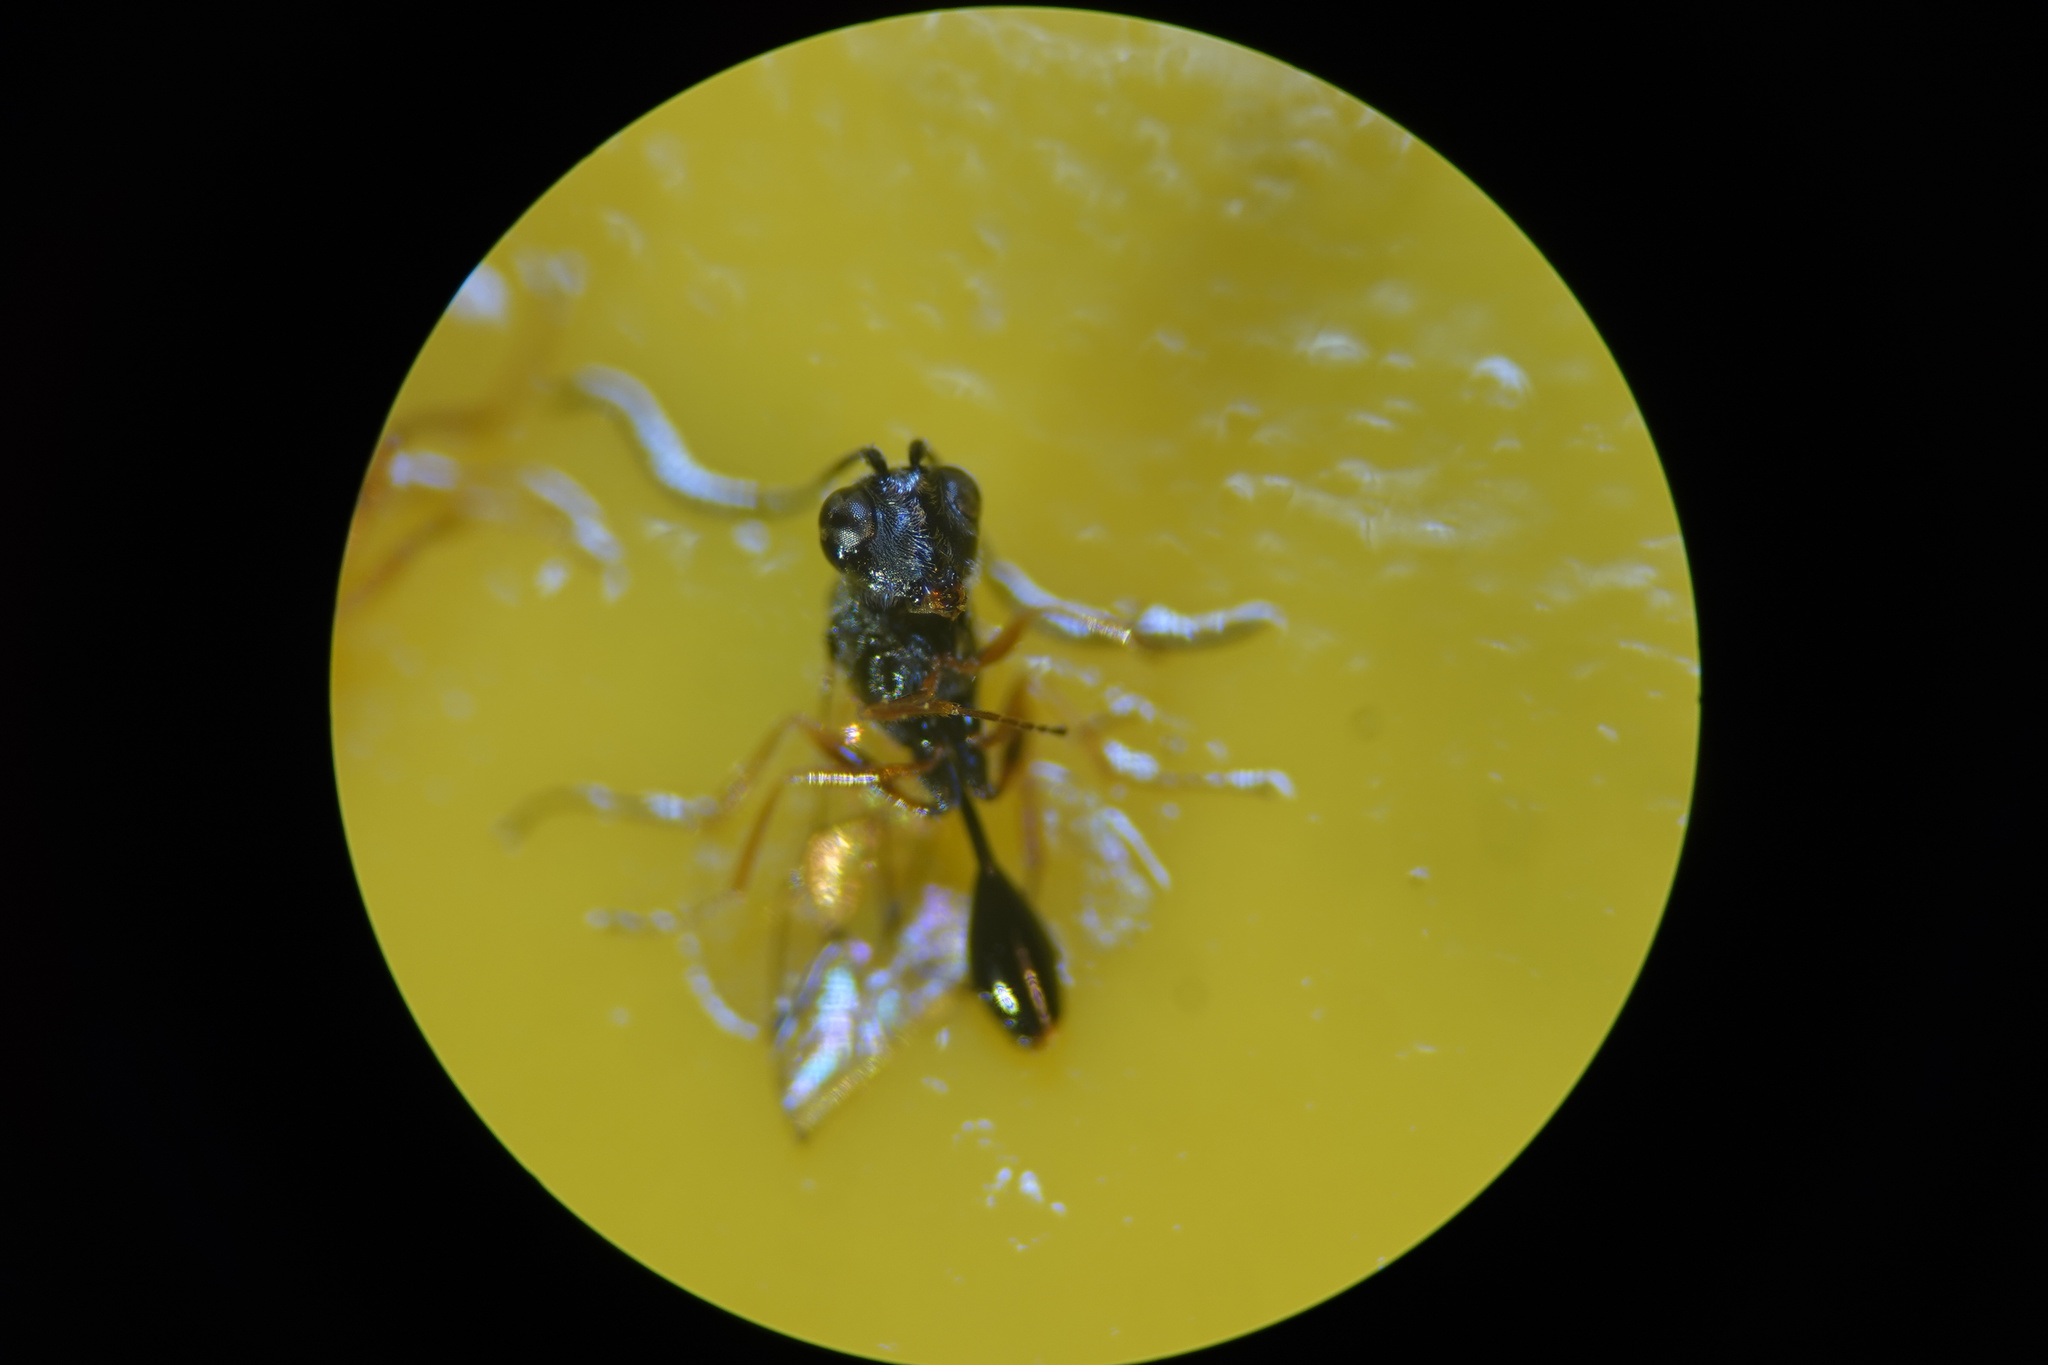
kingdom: Animalia
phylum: Arthropoda
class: Insecta
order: Hymenoptera
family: Figitidae
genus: Anacharis
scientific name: Anacharis zealandica
